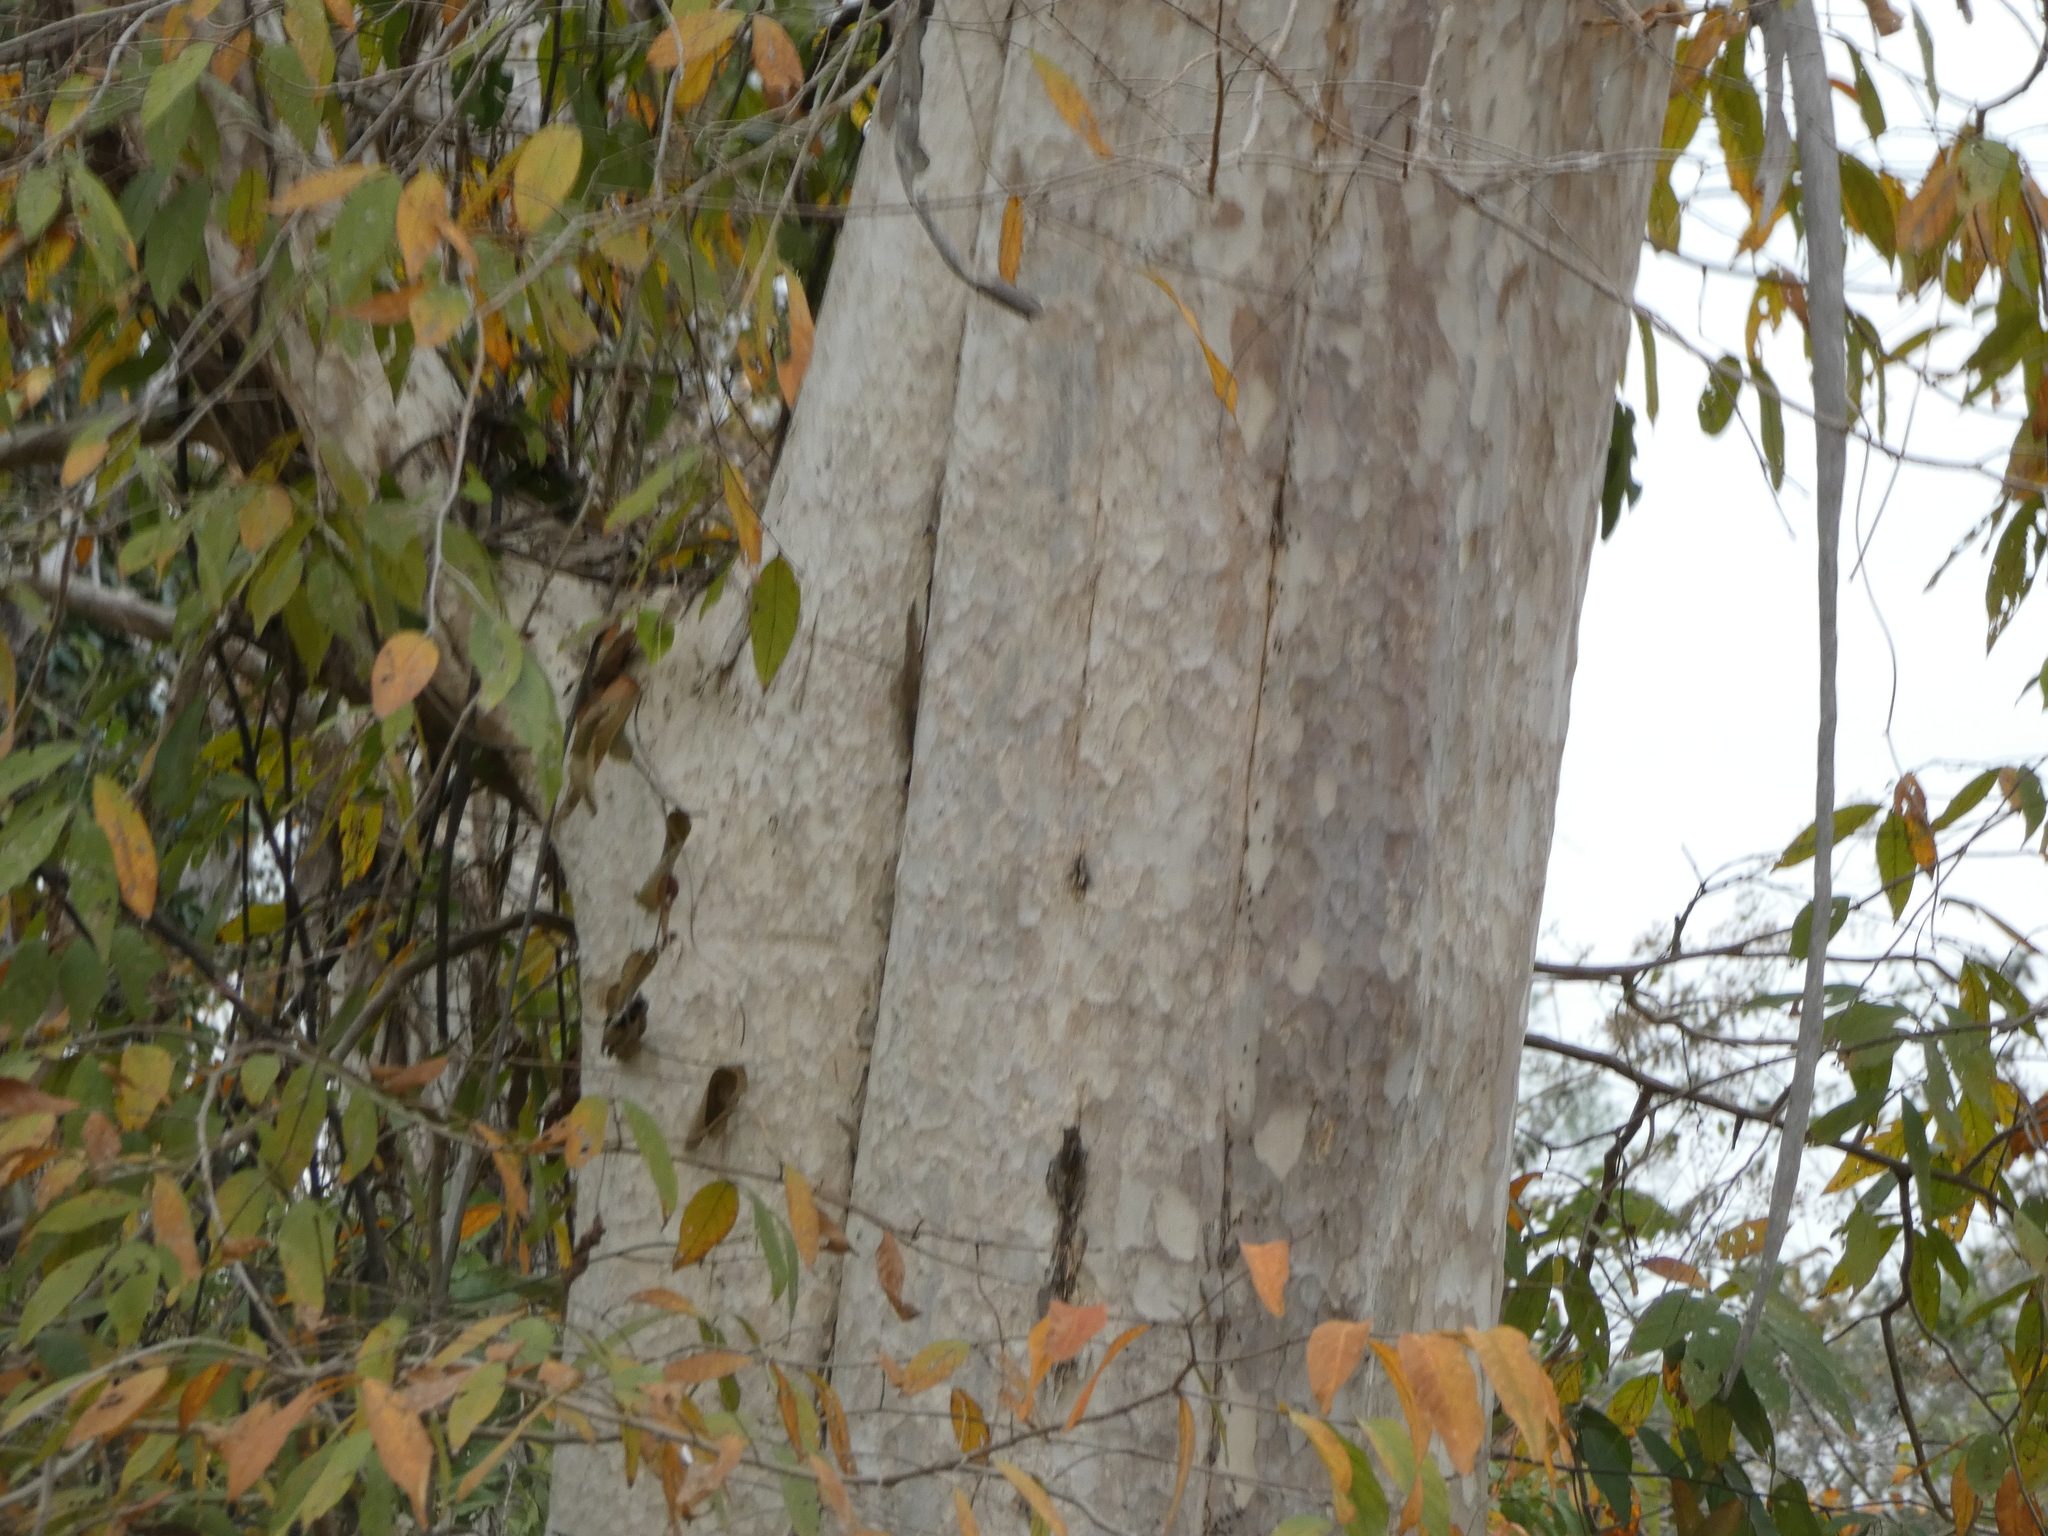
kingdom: Plantae
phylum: Tracheophyta
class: Magnoliopsida
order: Myrtales
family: Lythraceae
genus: Lagerstroemia
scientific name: Lagerstroemia calyculata
